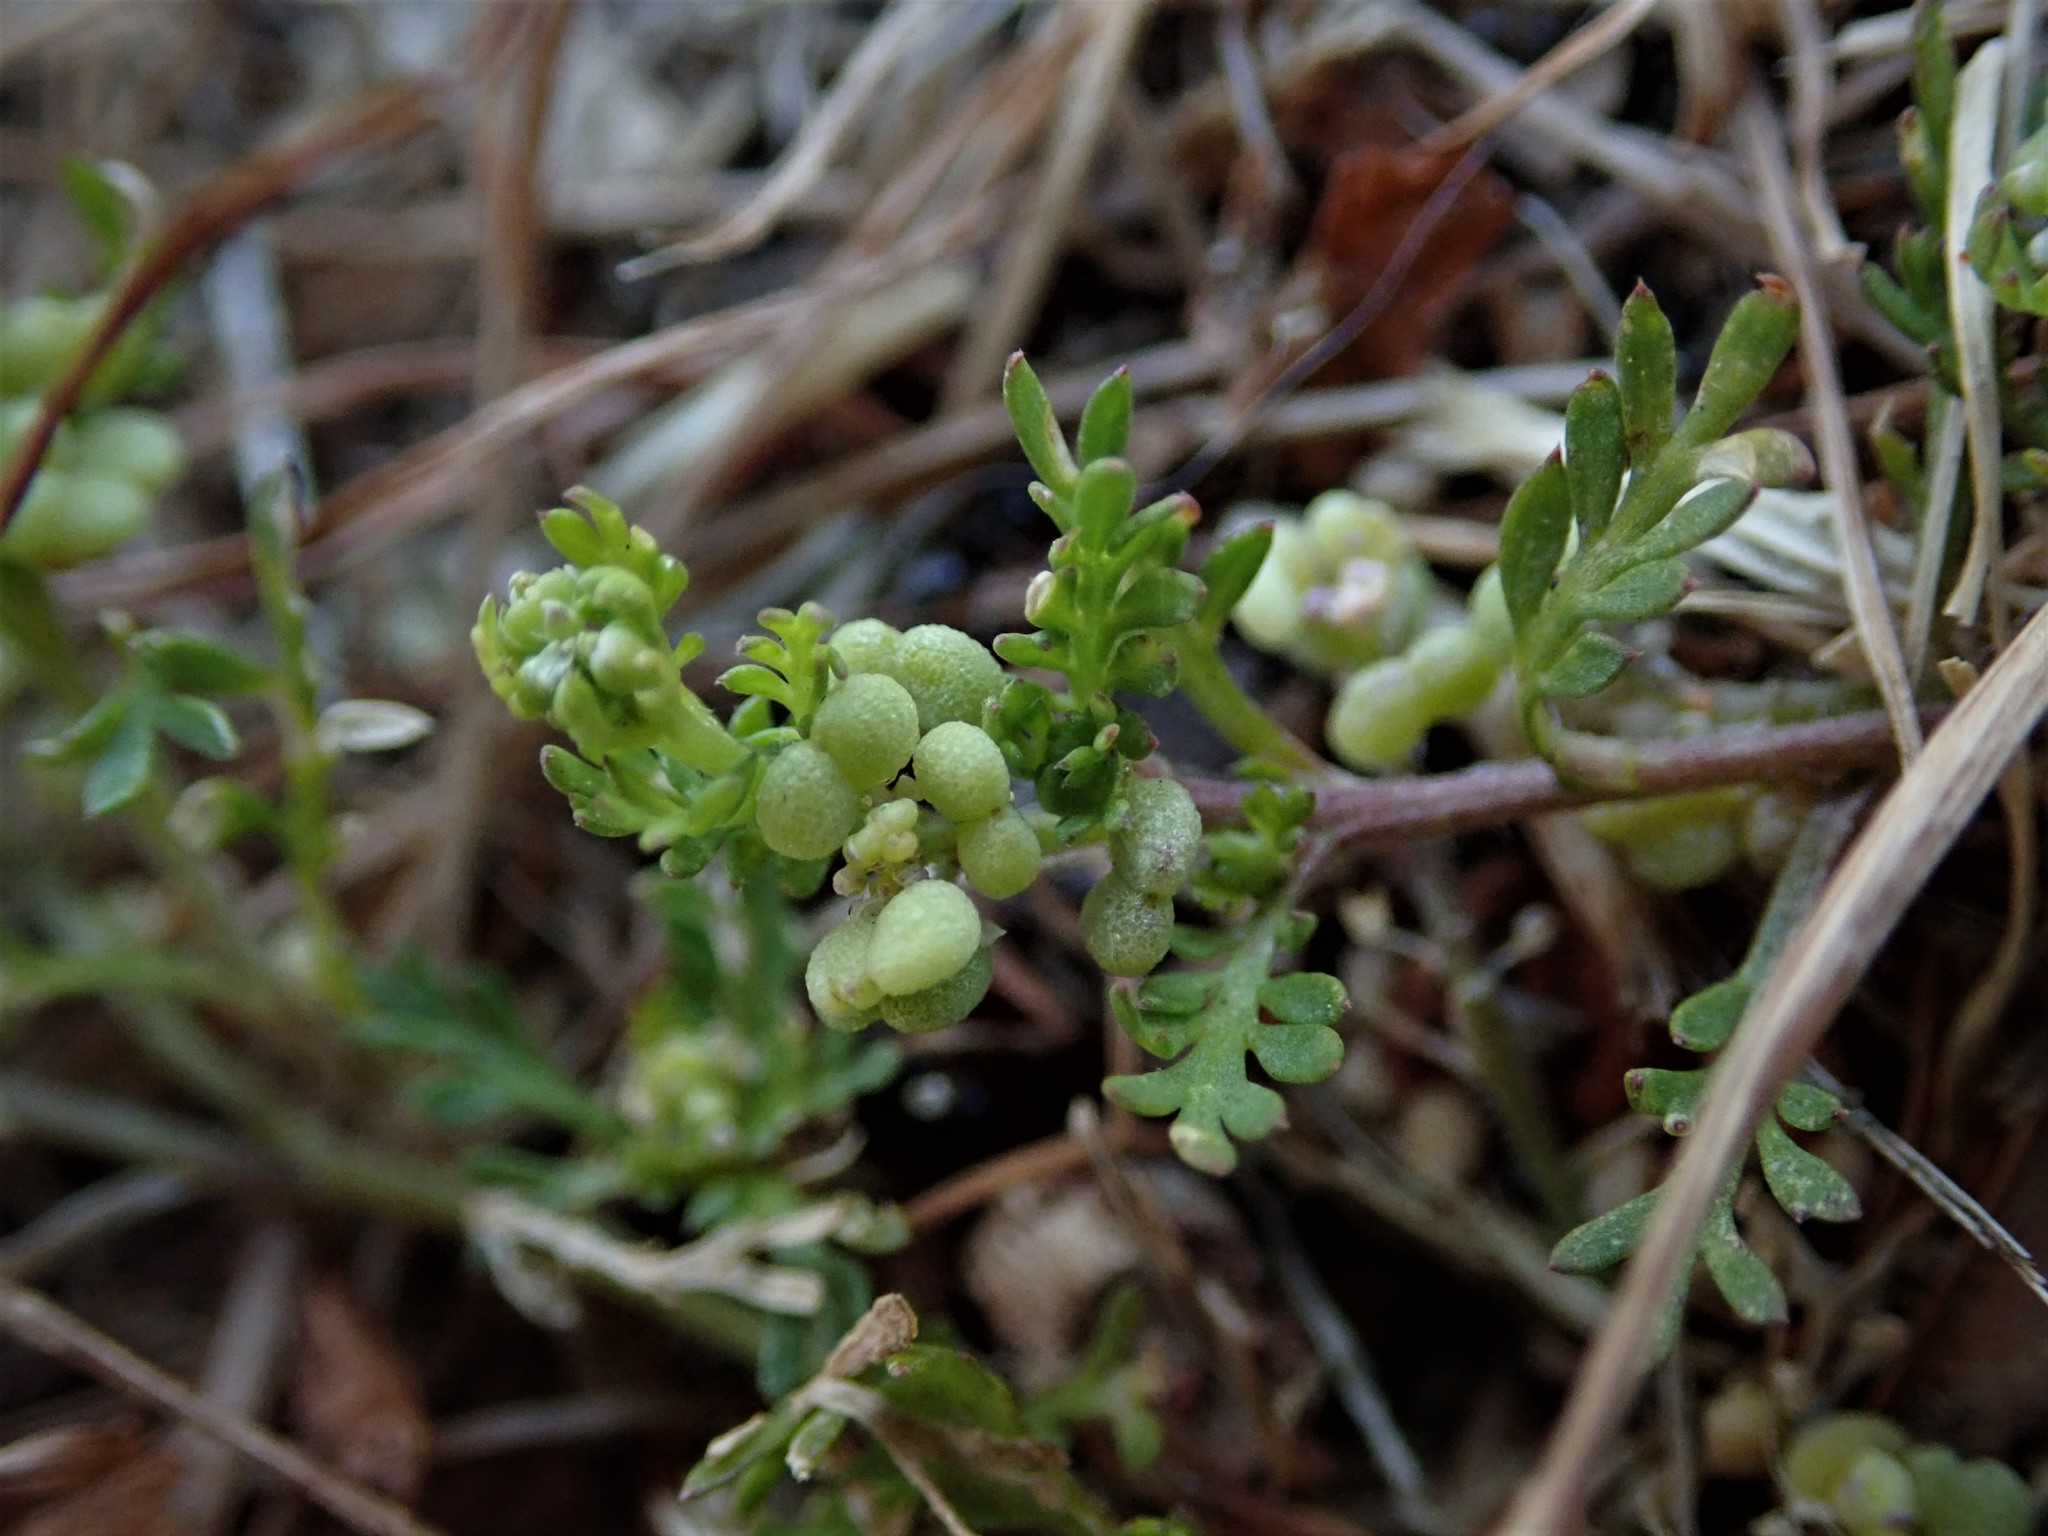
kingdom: Plantae
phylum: Tracheophyta
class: Magnoliopsida
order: Brassicales
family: Brassicaceae
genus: Lepidium
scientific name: Lepidium didymum
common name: Lesser swinecress
